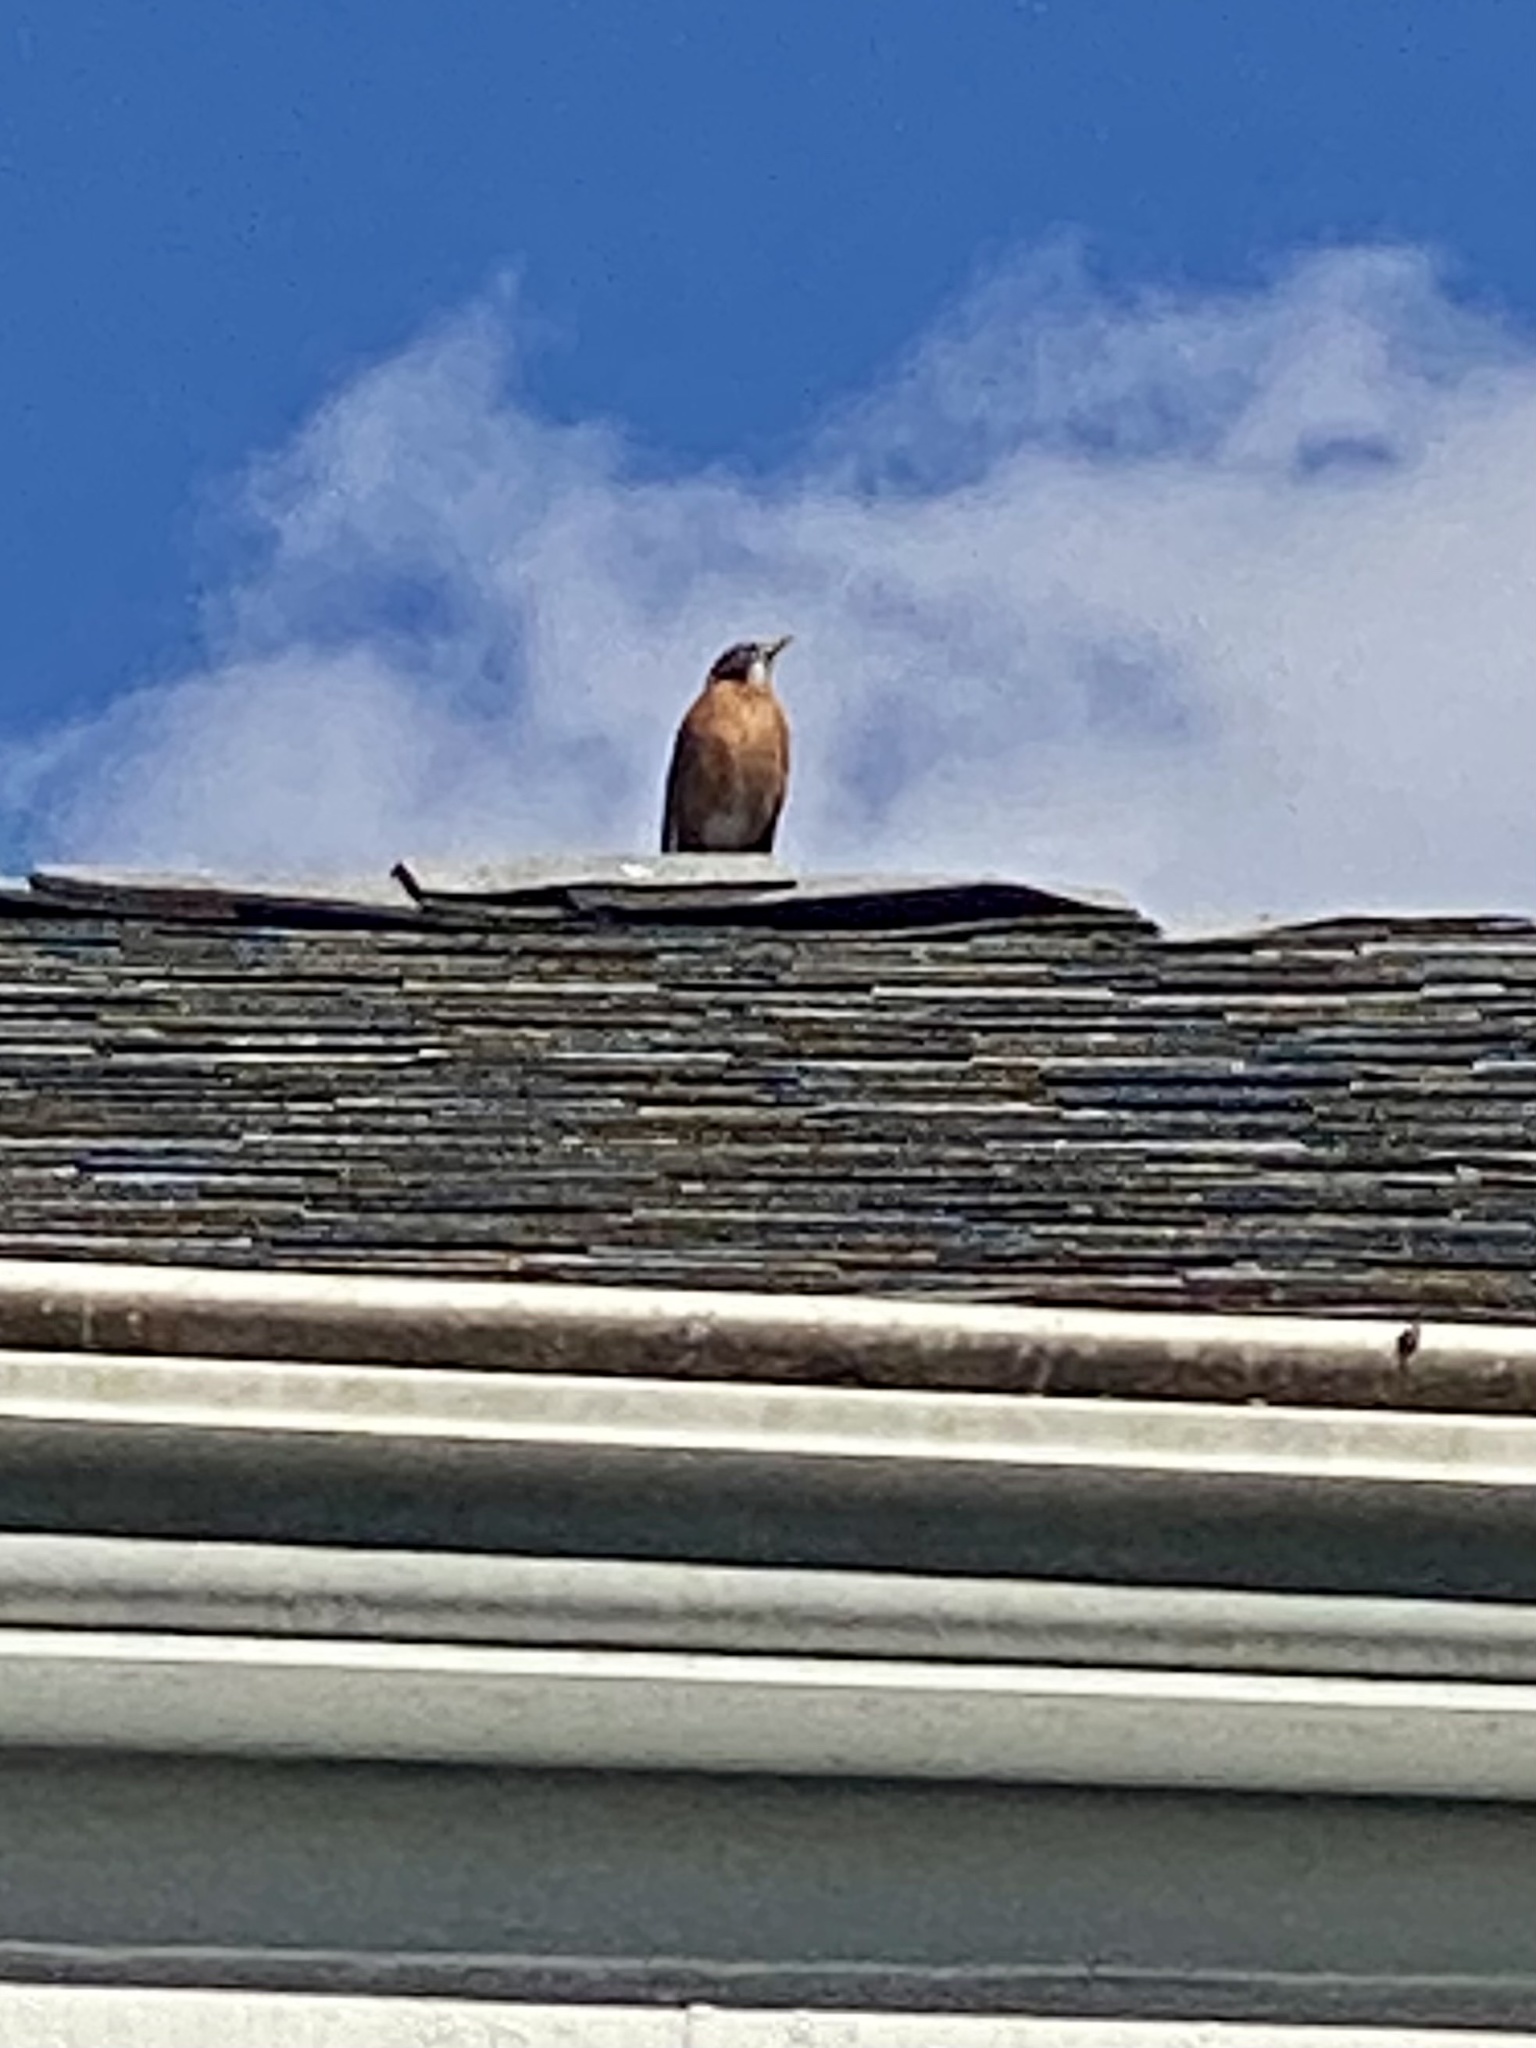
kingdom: Animalia
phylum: Chordata
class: Aves
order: Passeriformes
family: Turdidae
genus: Turdus
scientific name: Turdus migratorius
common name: American robin
